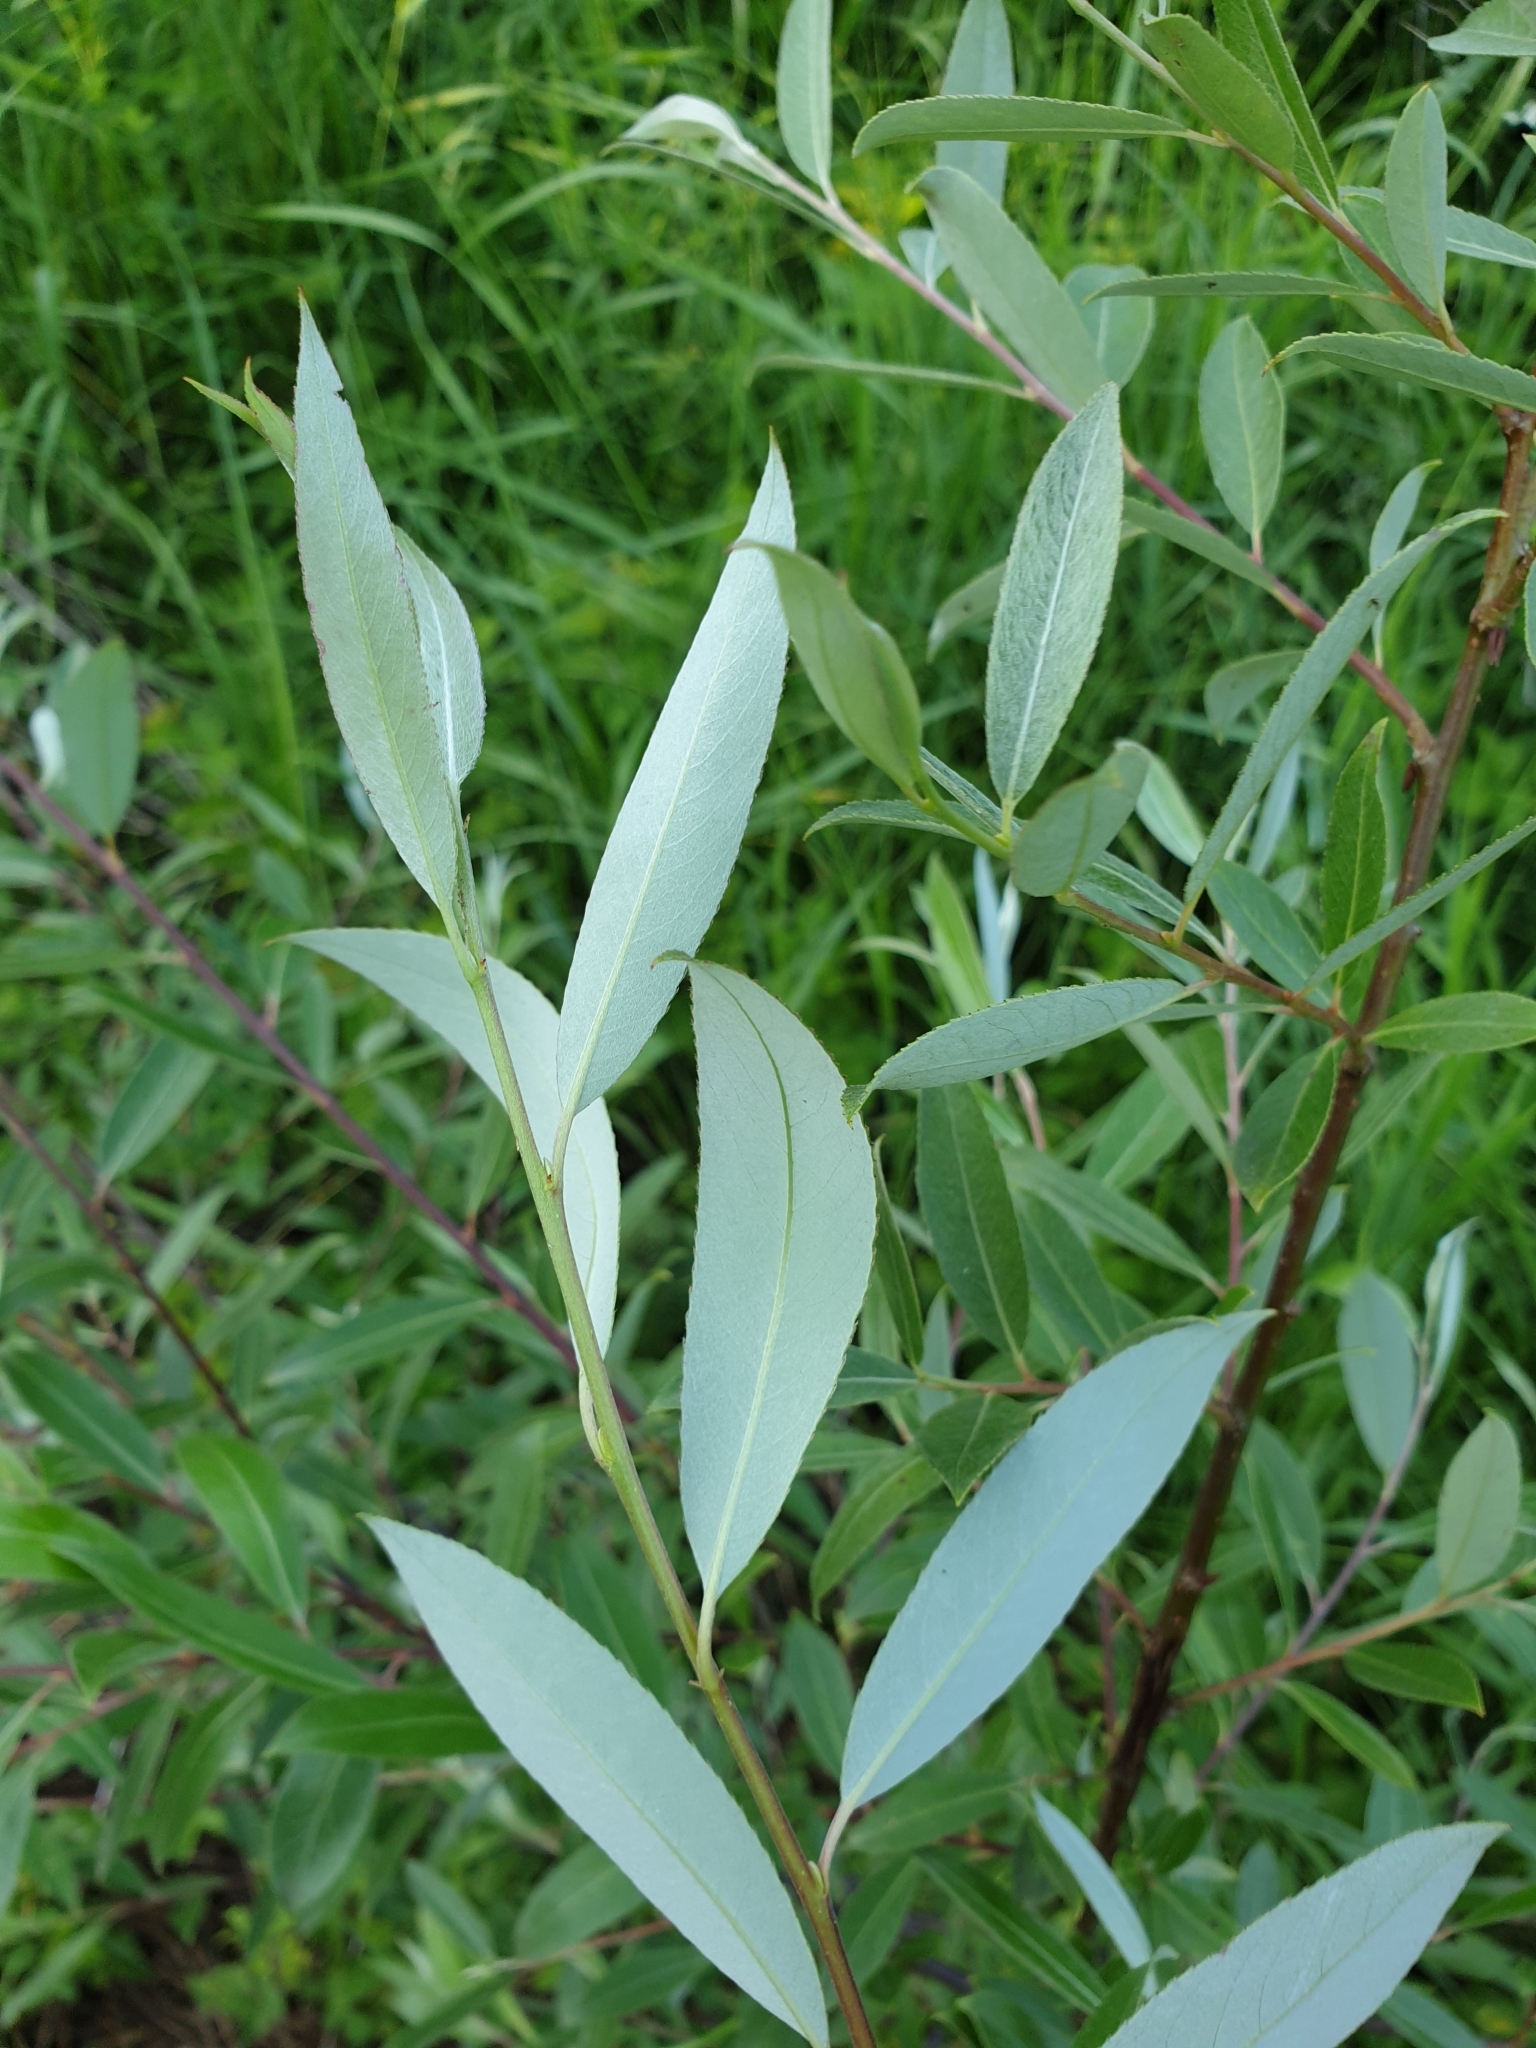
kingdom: Plantae
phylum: Tracheophyta
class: Magnoliopsida
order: Malpighiales
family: Salicaceae
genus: Salix
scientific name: Salix alba
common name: White willow
